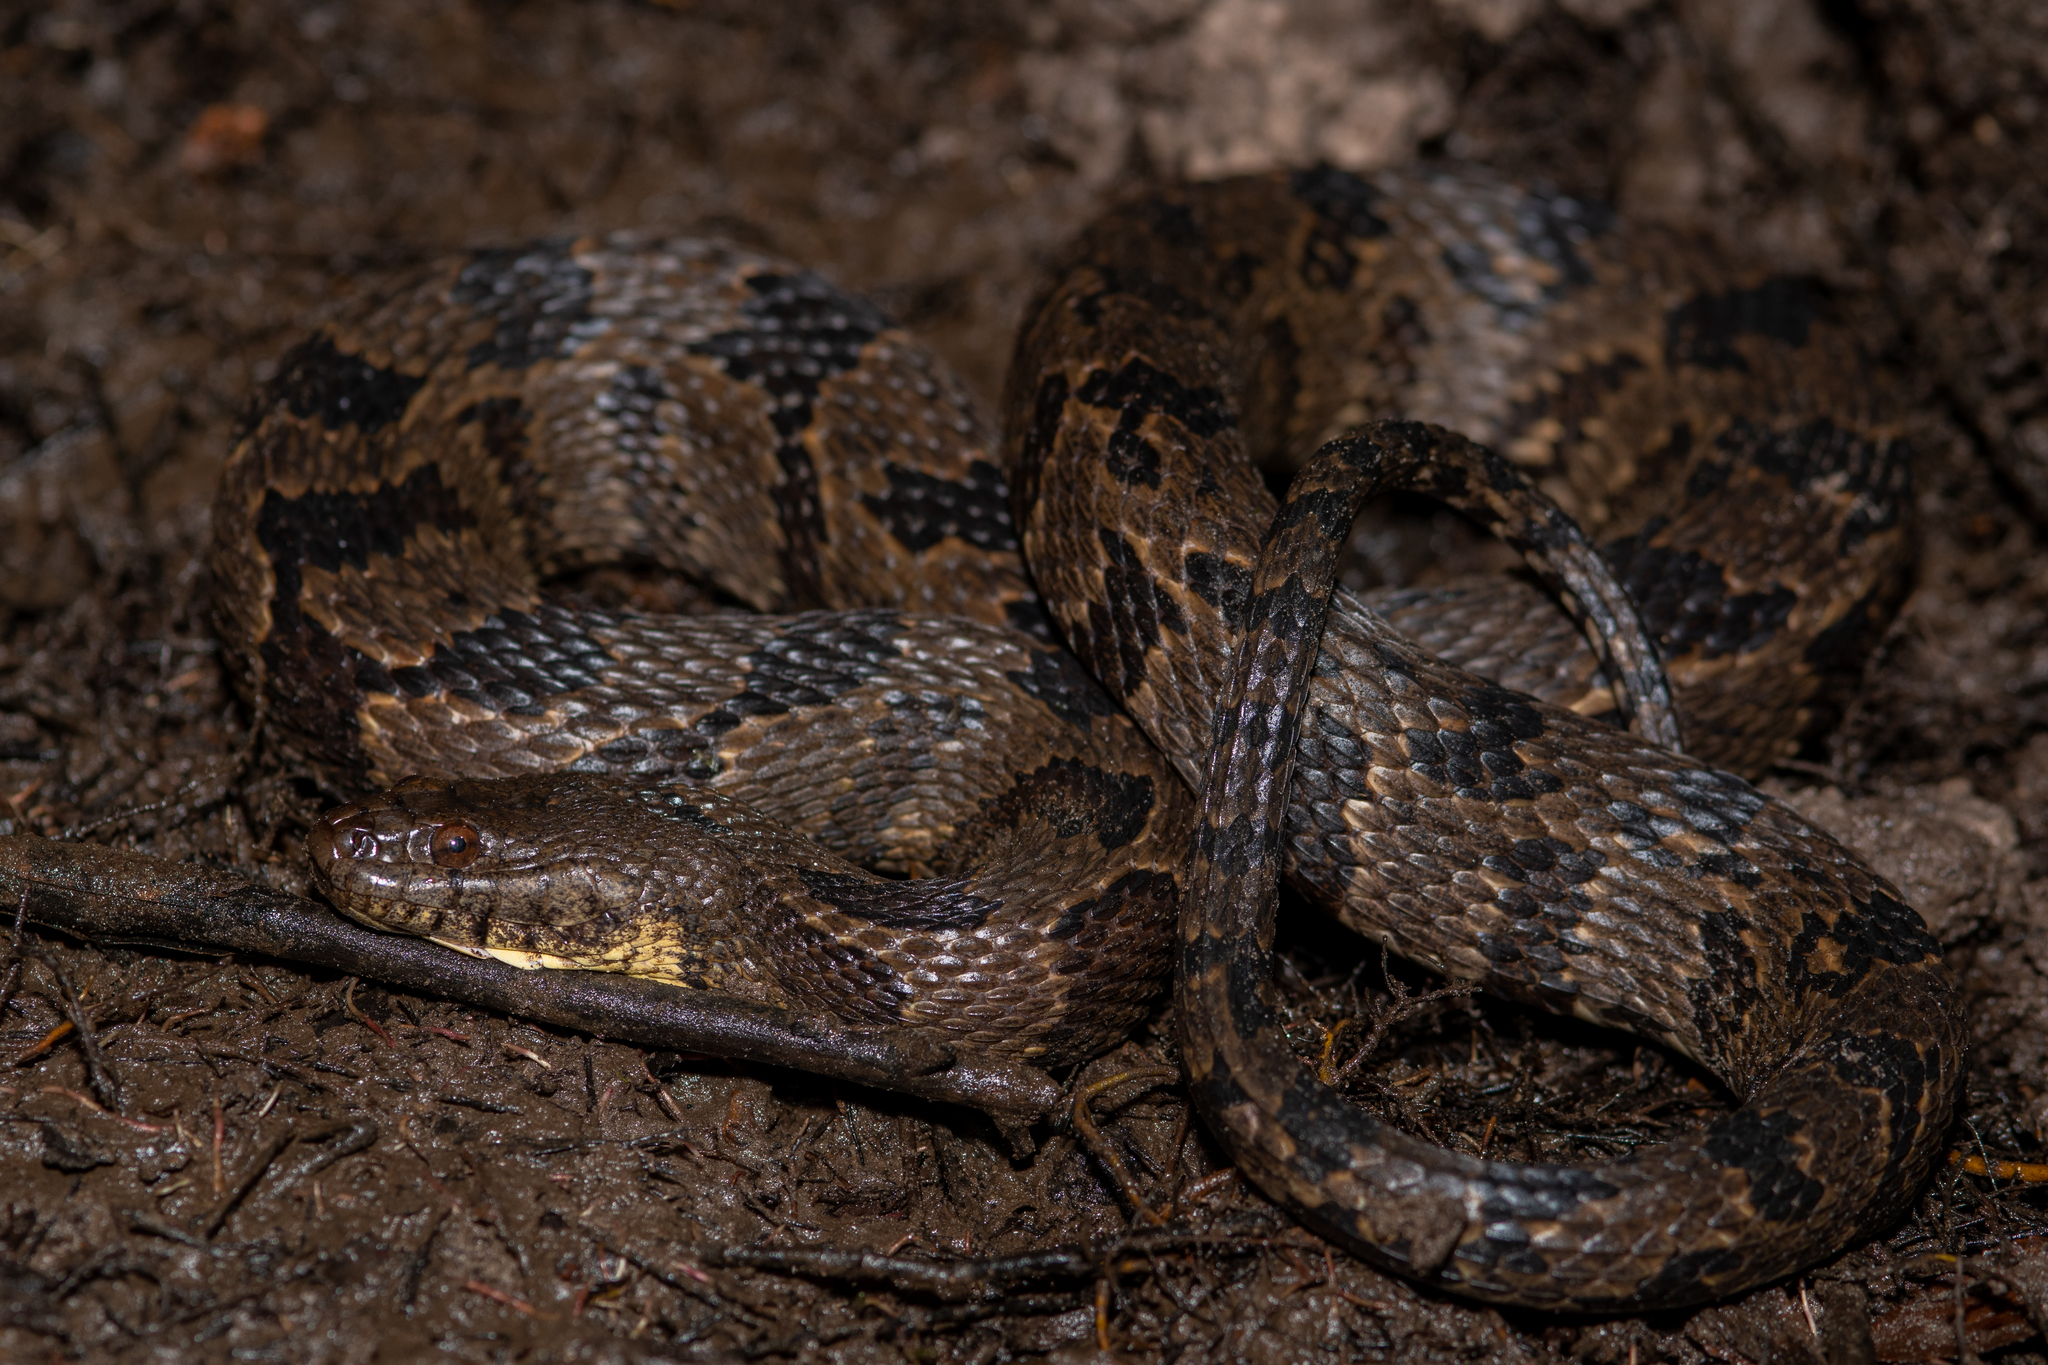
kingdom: Animalia
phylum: Chordata
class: Squamata
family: Colubridae
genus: Nerodia
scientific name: Nerodia taxispilota
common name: Brown water snake
